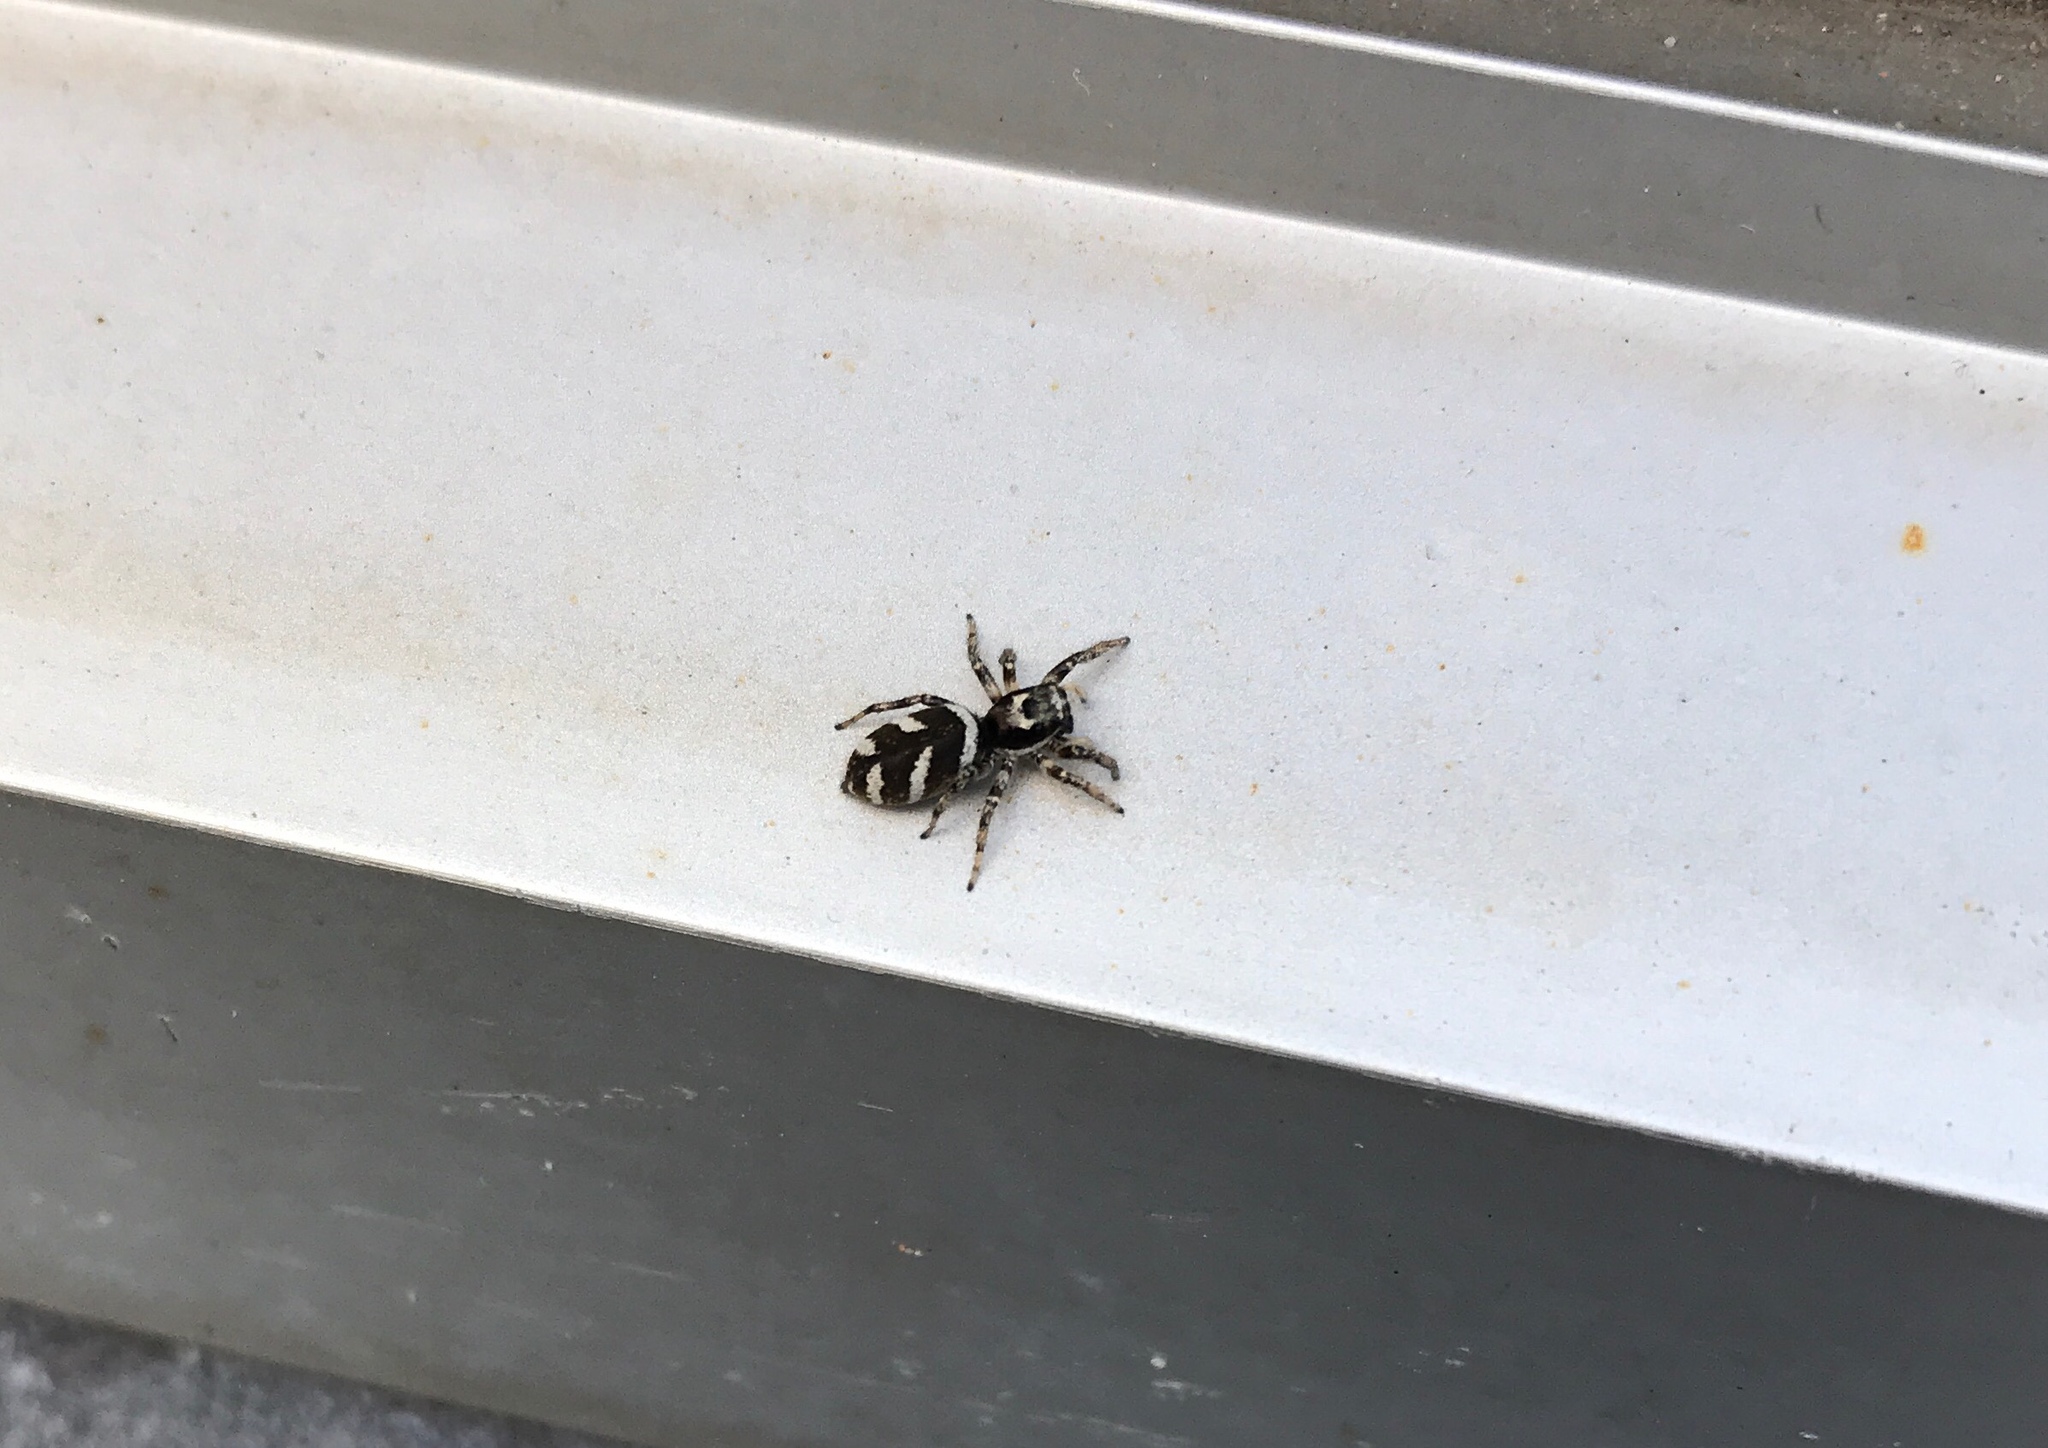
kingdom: Animalia
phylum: Arthropoda
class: Arachnida
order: Araneae
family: Salticidae
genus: Salticus
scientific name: Salticus scenicus
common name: Zebra jumper
